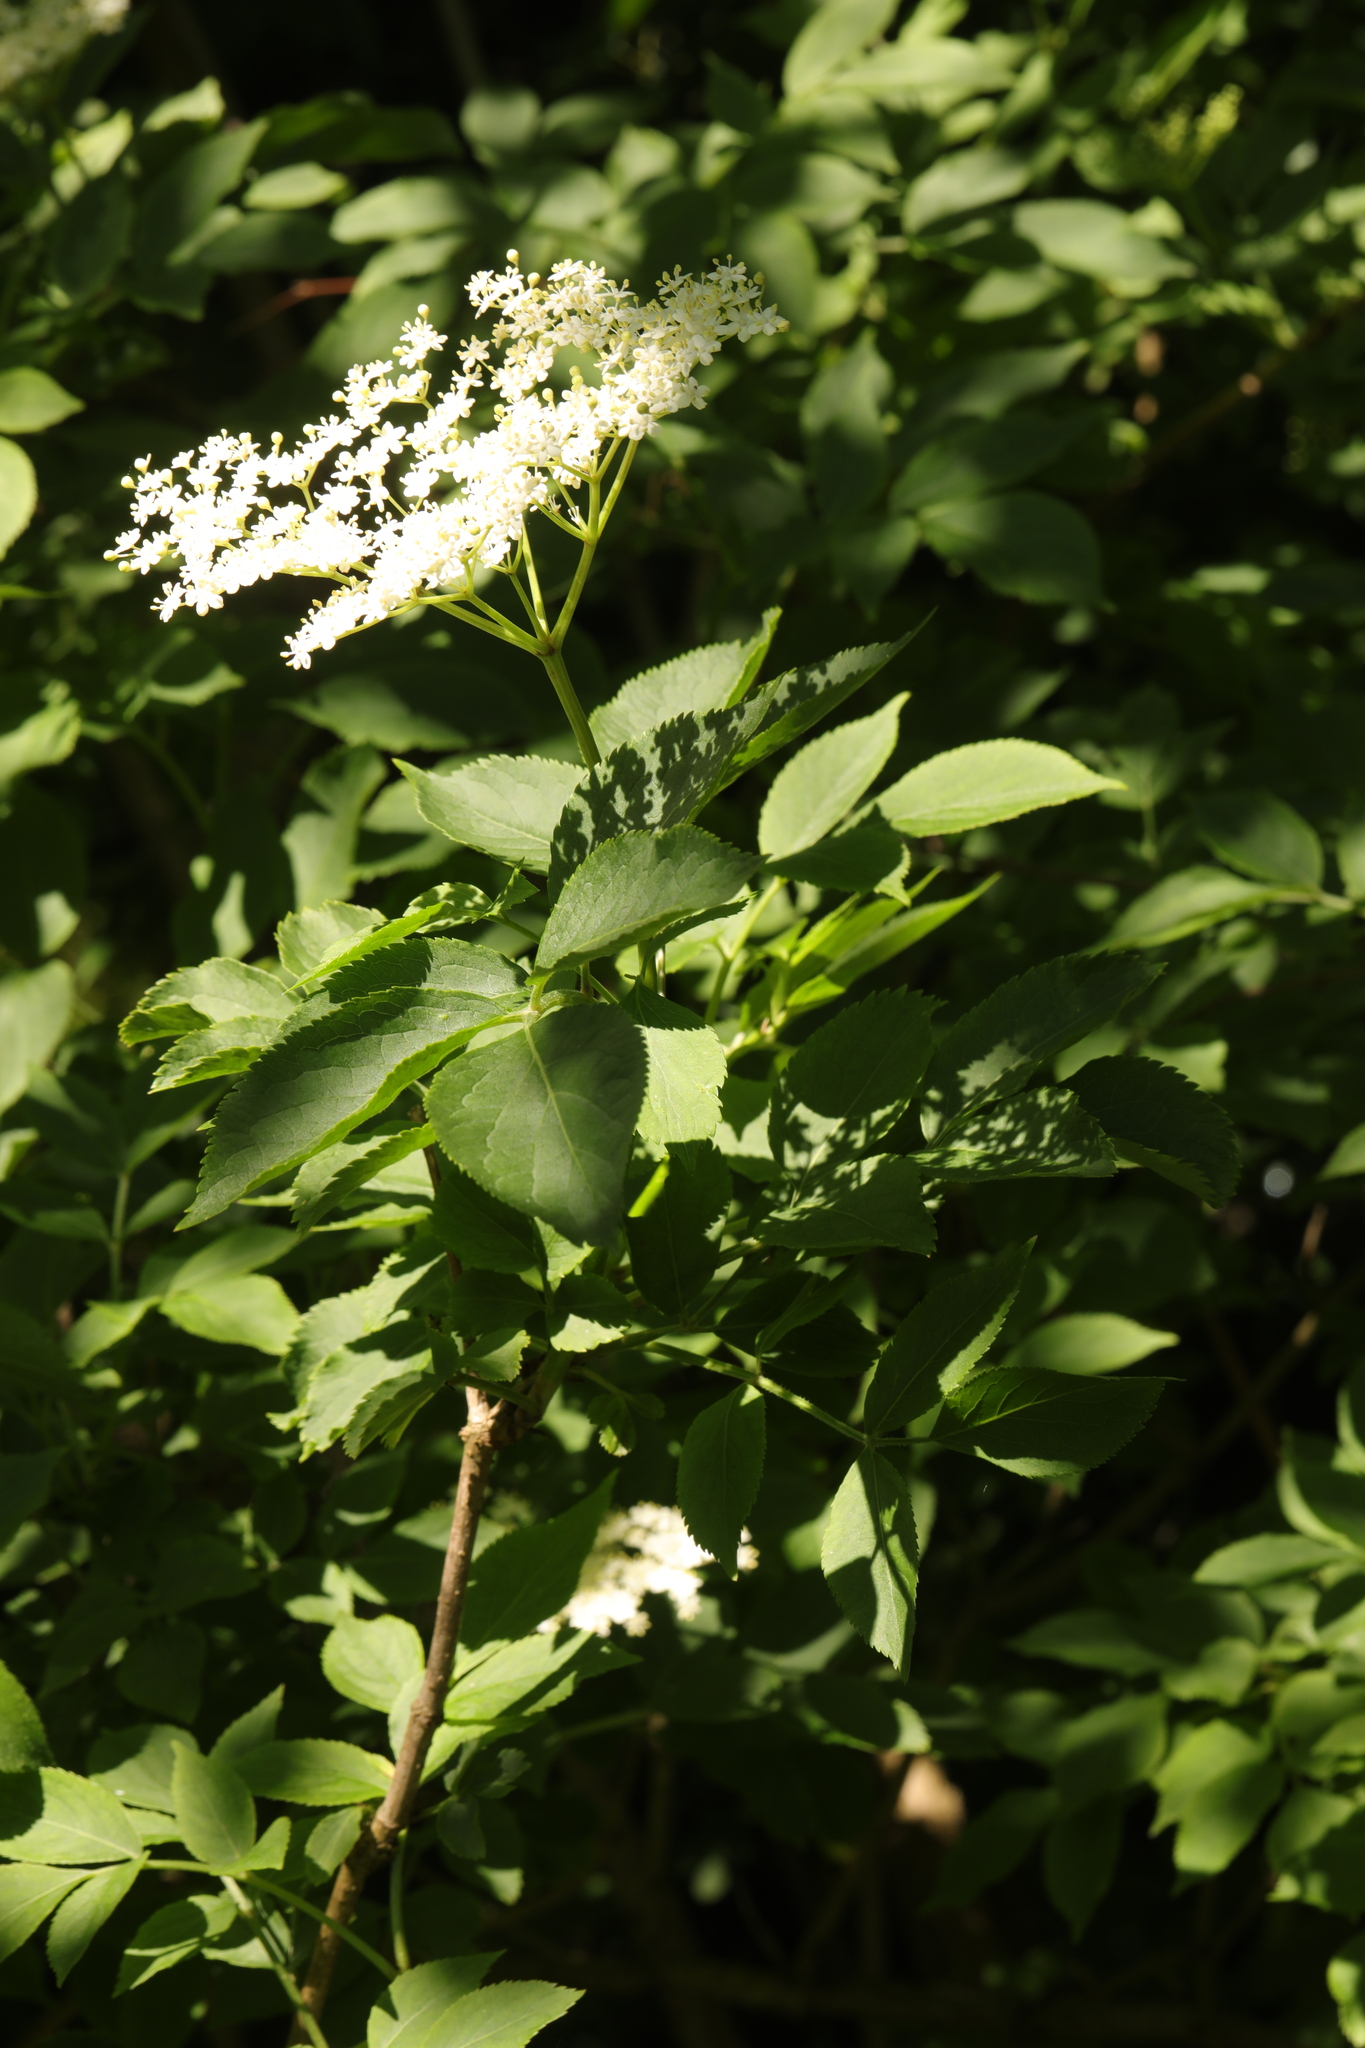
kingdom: Plantae
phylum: Tracheophyta
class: Magnoliopsida
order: Dipsacales
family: Viburnaceae
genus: Sambucus
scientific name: Sambucus nigra
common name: Elder
